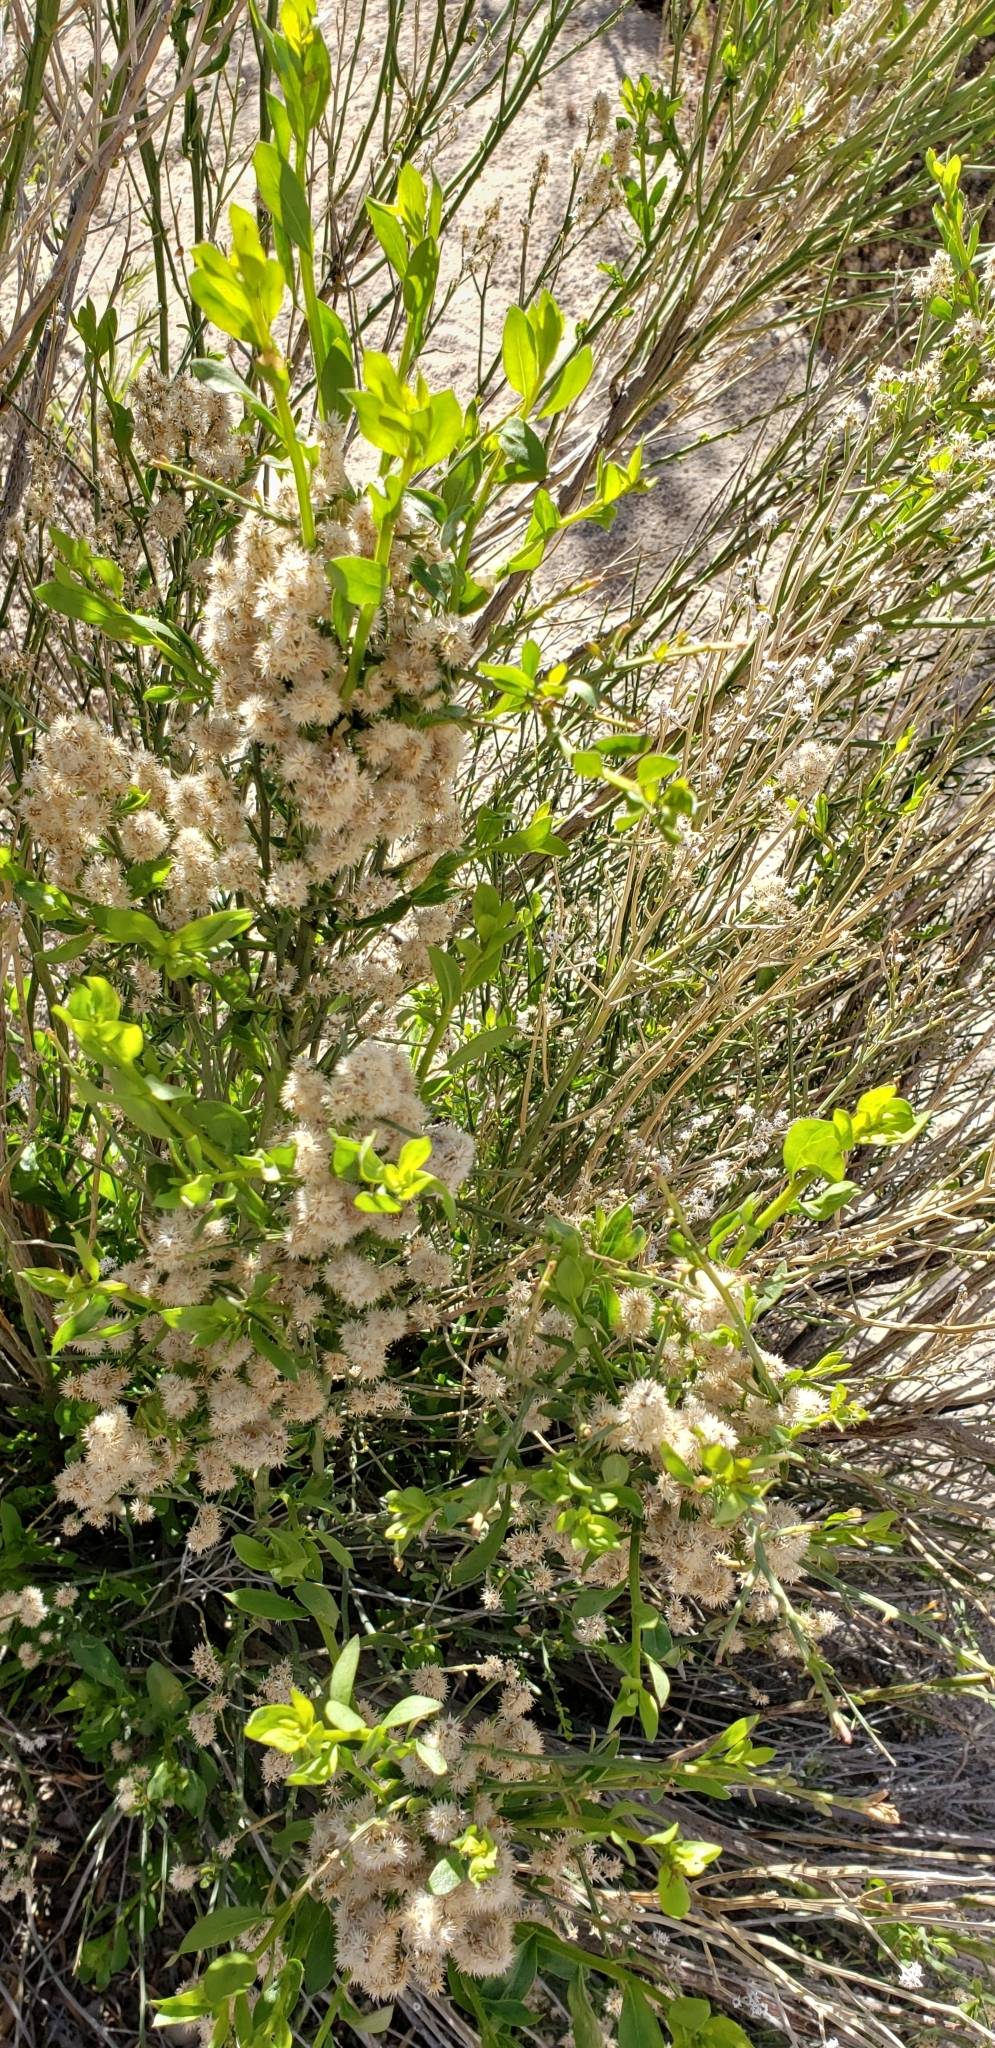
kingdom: Plantae
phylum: Tracheophyta
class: Magnoliopsida
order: Asterales
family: Asteraceae
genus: Baccharis
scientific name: Baccharis sergiloides
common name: Desert baccharis
